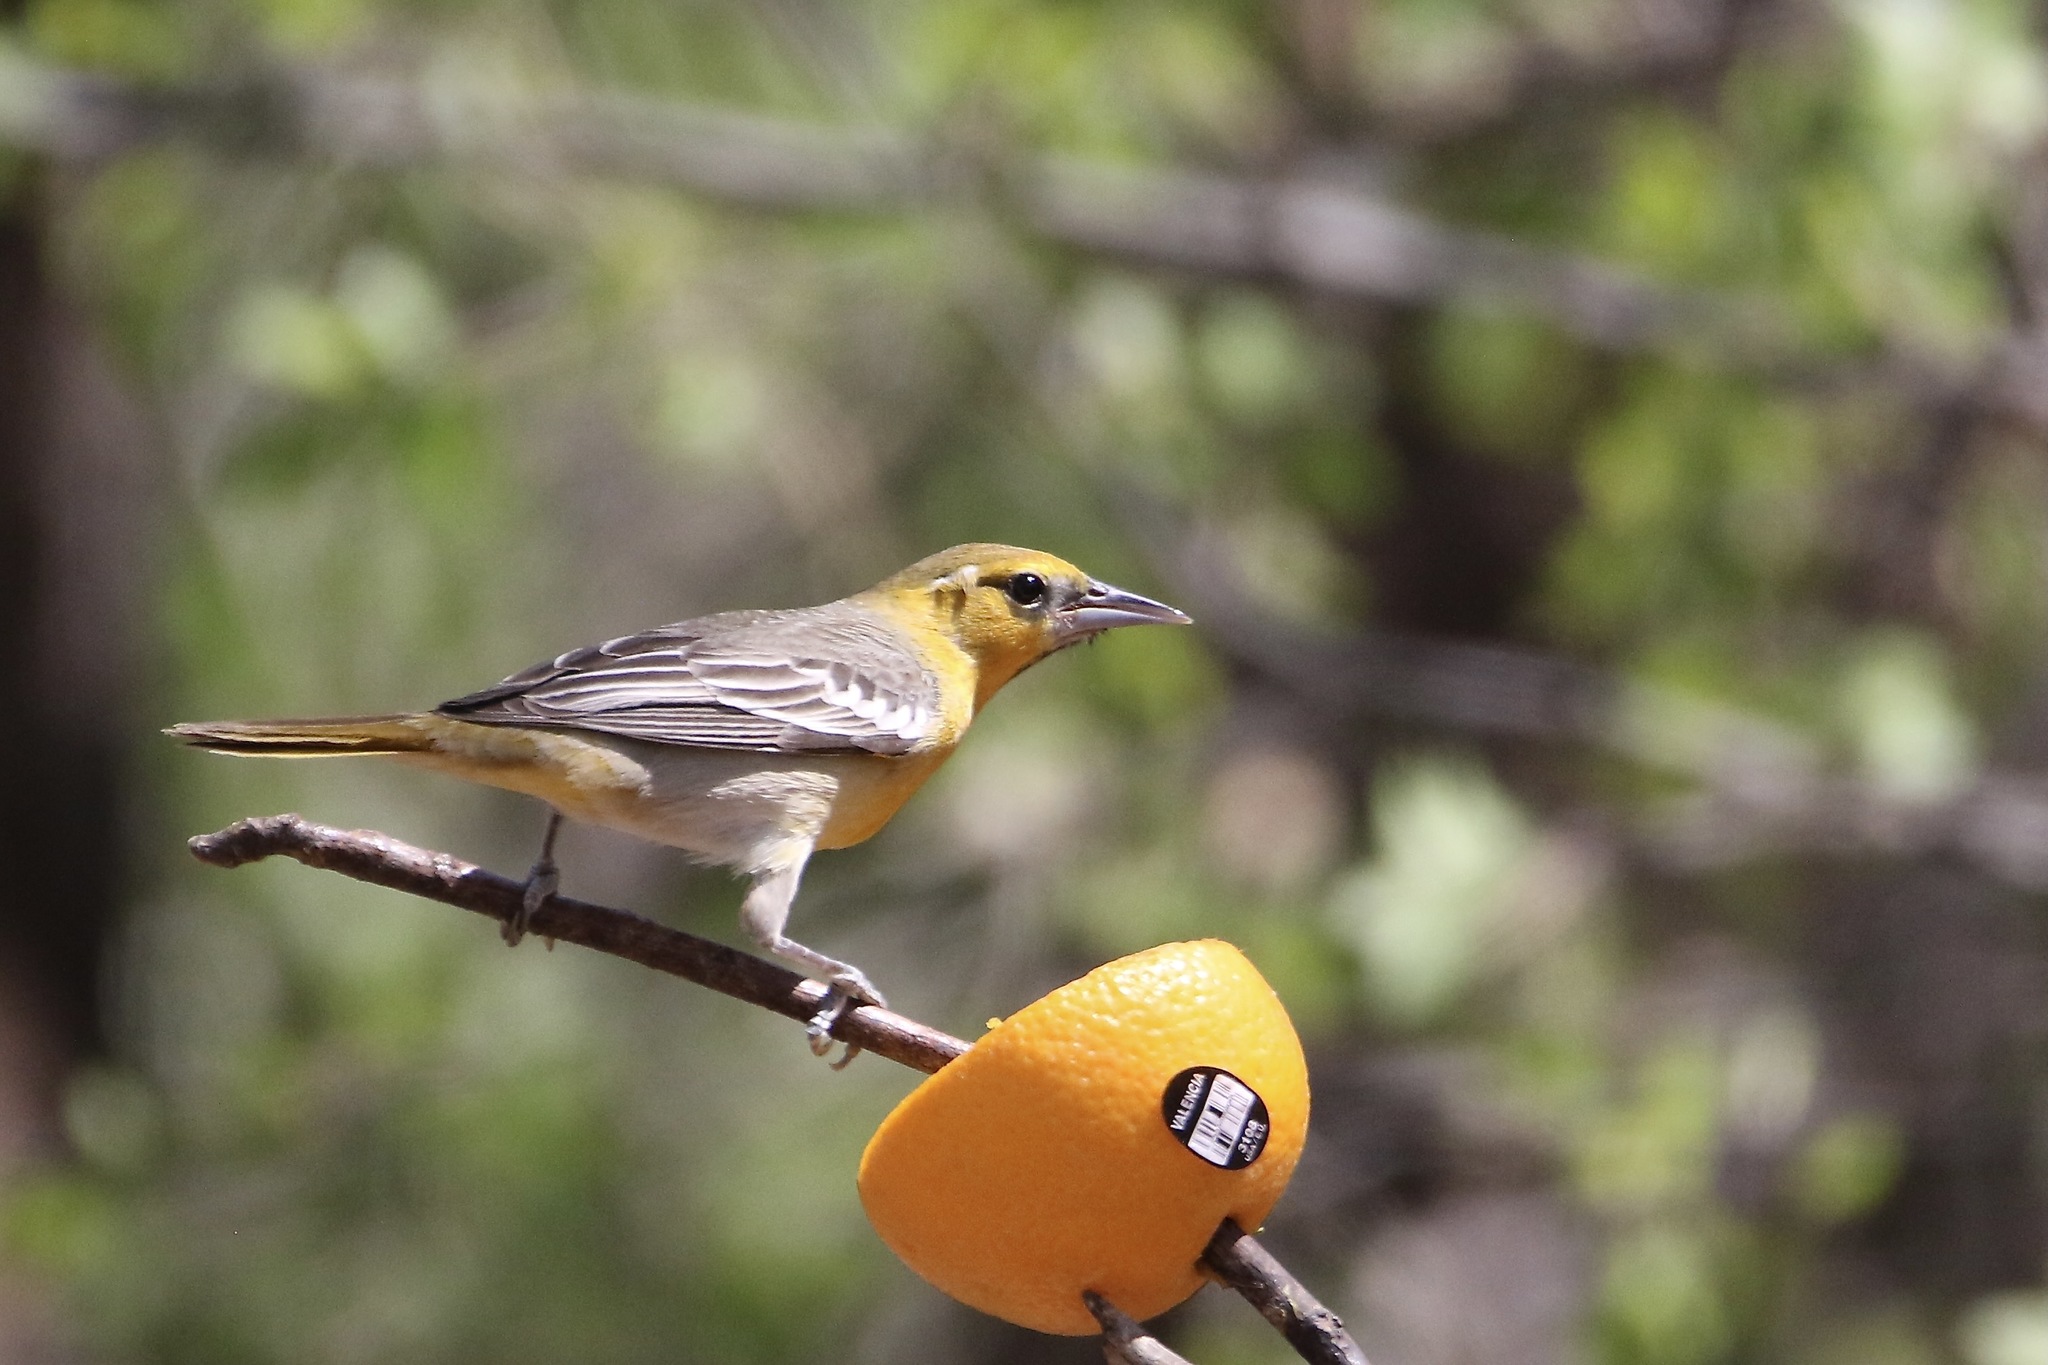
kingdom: Animalia
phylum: Chordata
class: Aves
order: Passeriformes
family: Icteridae
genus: Icterus
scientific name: Icterus bullockii
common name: Bullock's oriole
